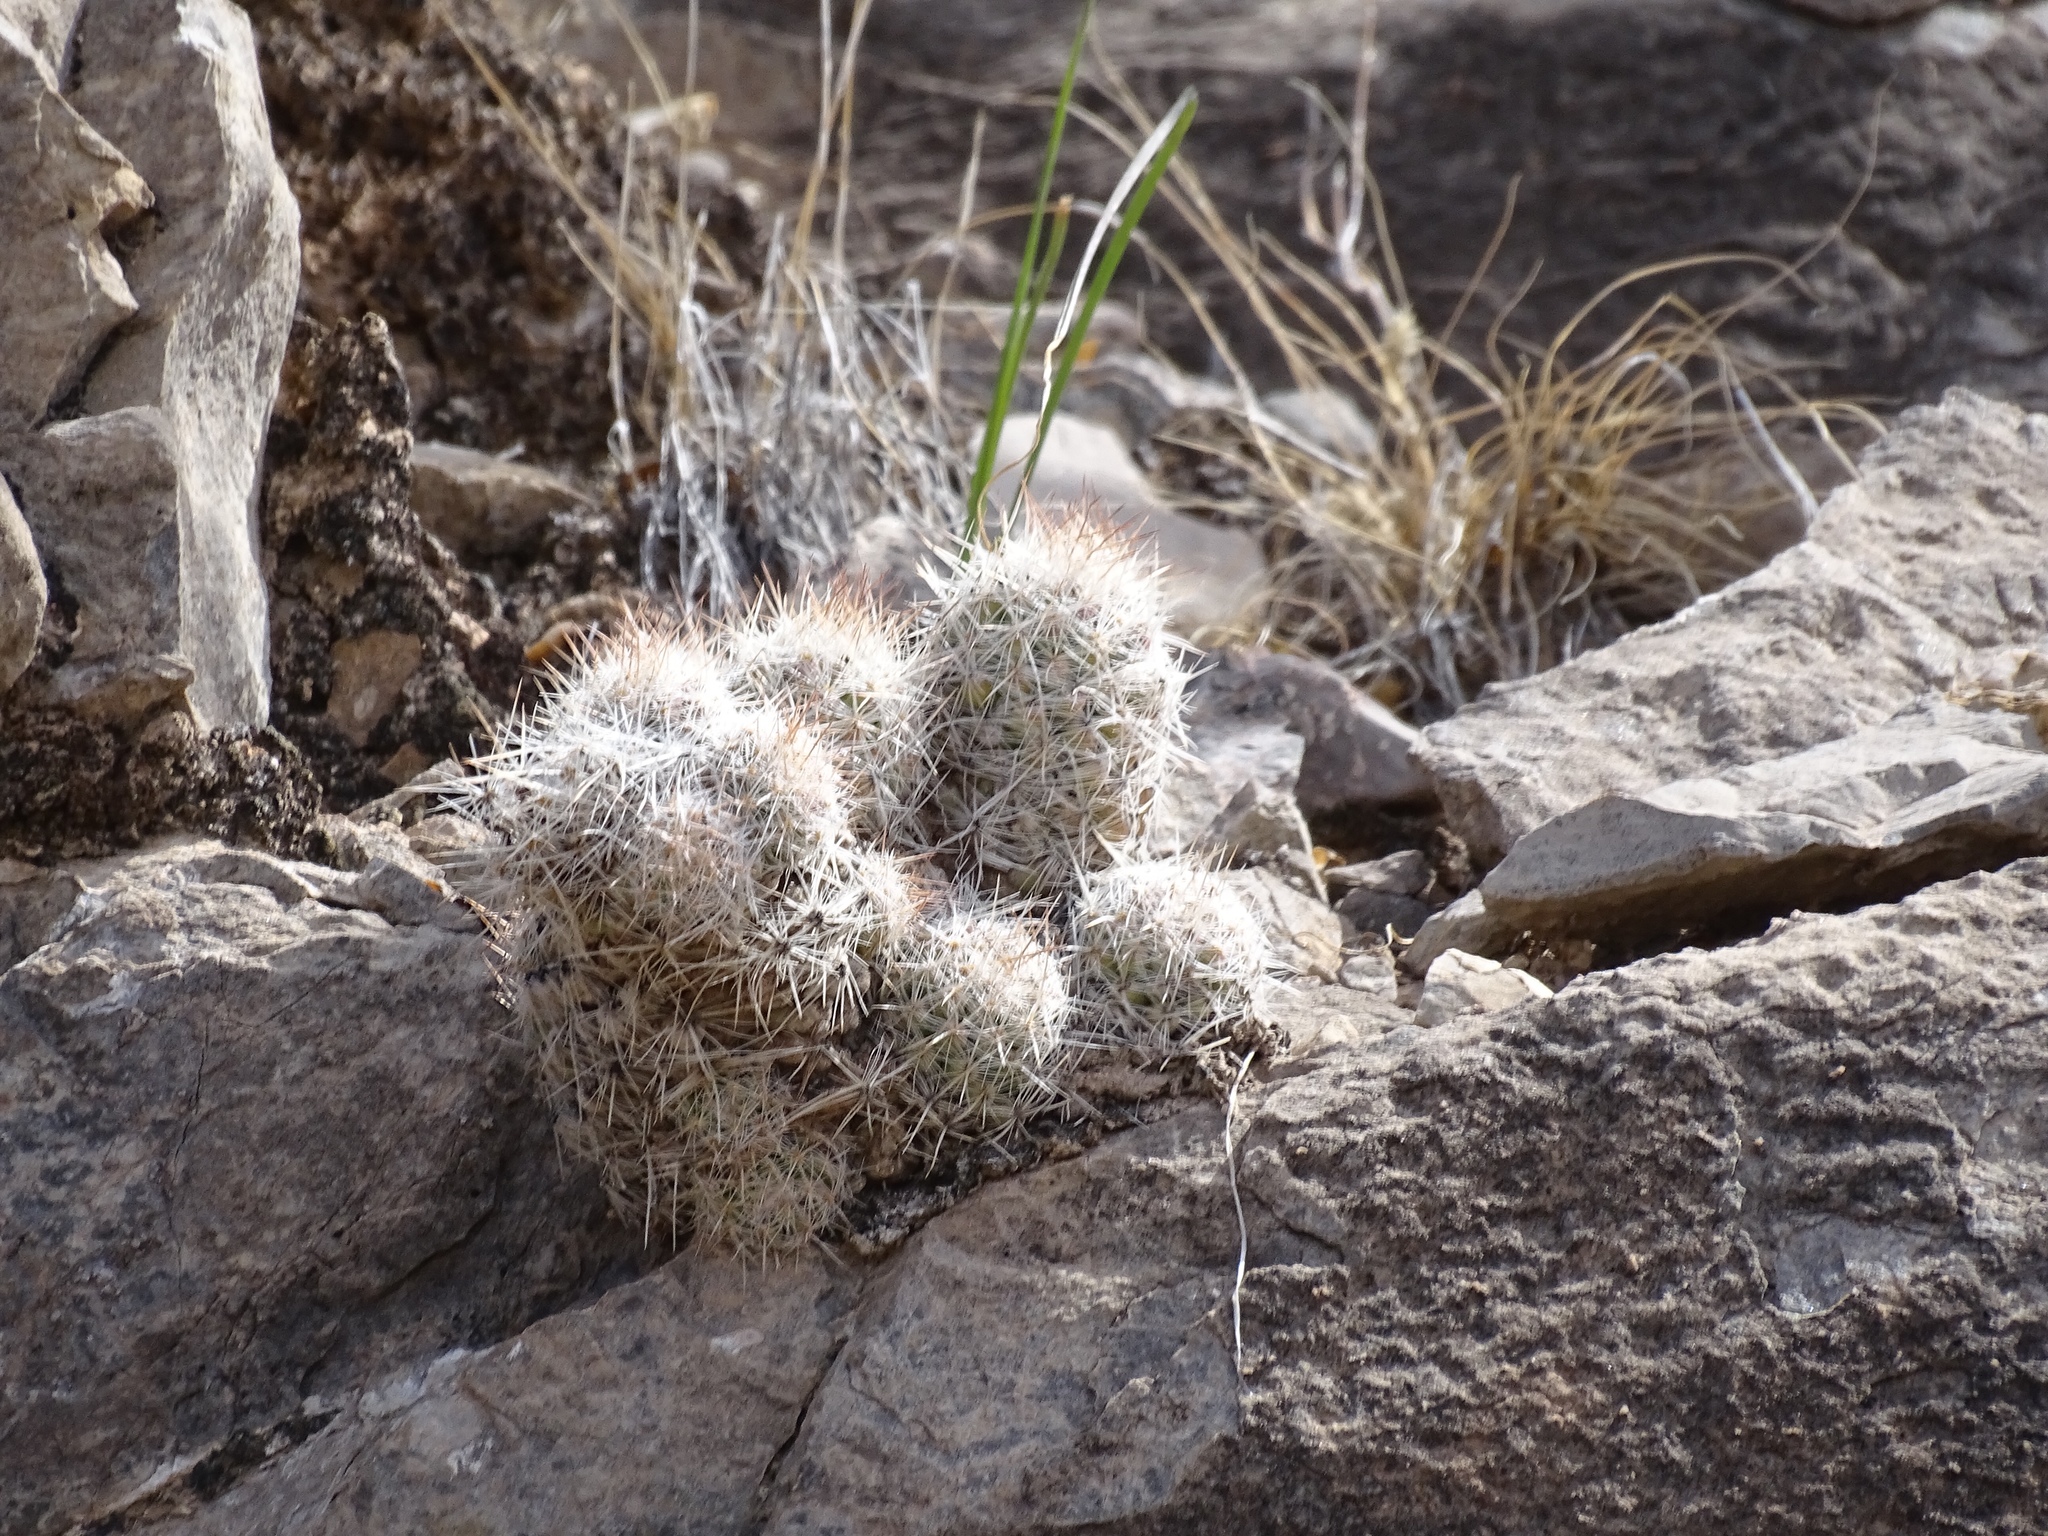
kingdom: Plantae
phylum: Tracheophyta
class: Magnoliopsida
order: Caryophyllales
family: Cactaceae
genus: Pelecyphora
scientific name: Pelecyphora tuberculosa
